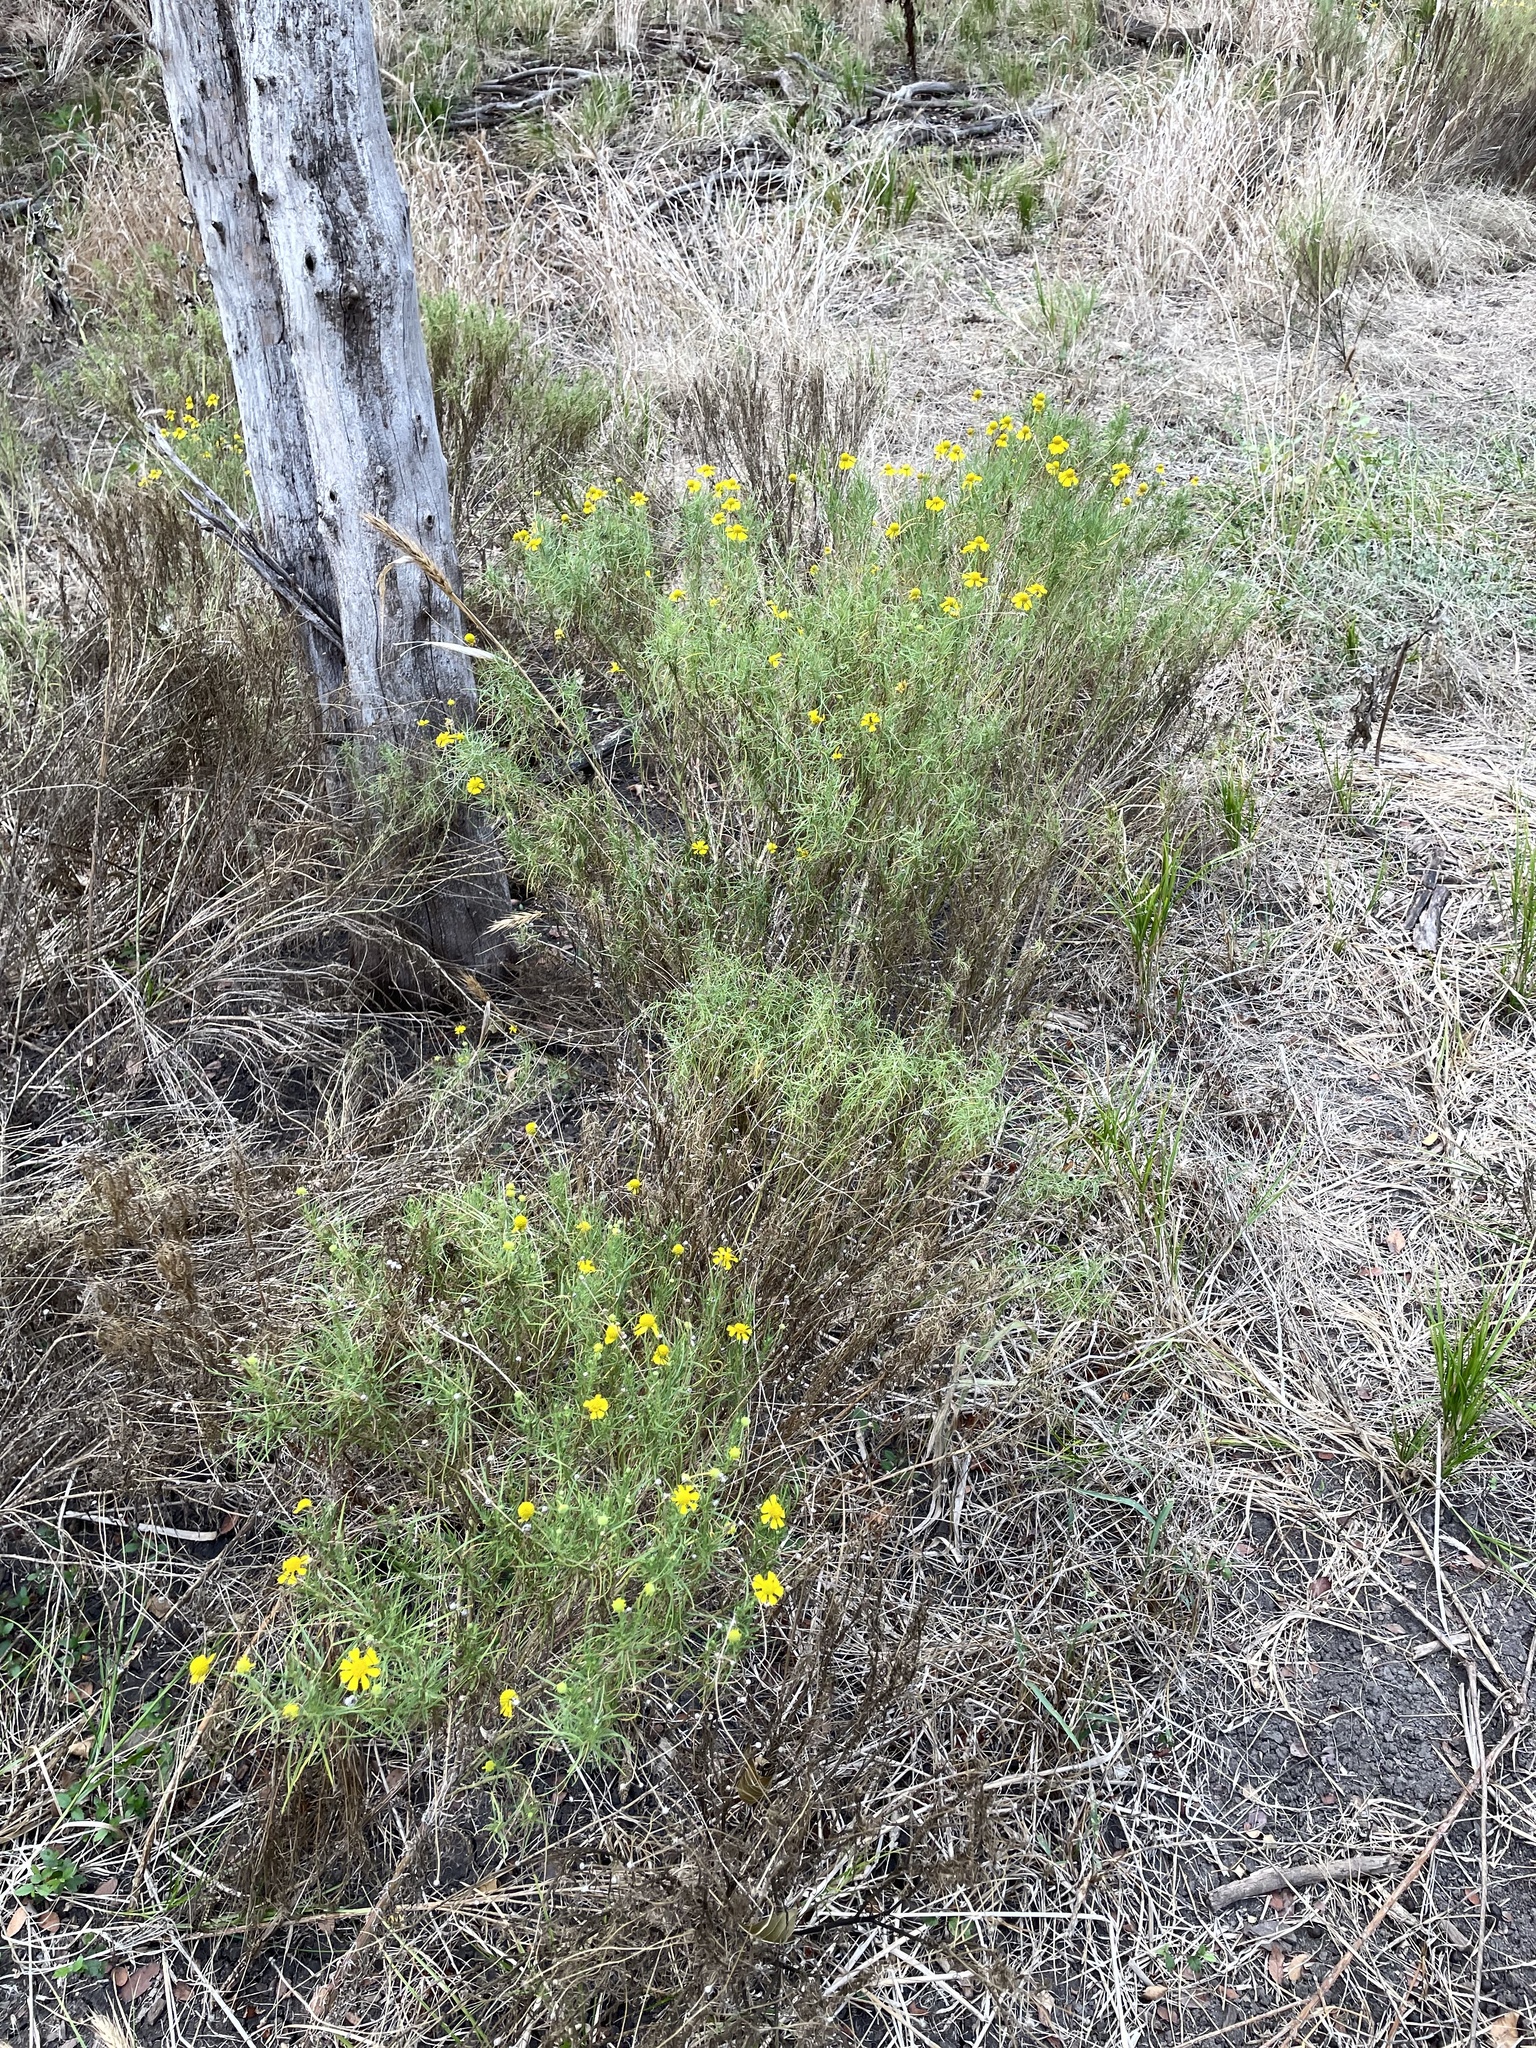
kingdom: Plantae
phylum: Tracheophyta
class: Magnoliopsida
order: Asterales
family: Asteraceae
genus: Helenium
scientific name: Helenium amarum
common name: Bitter sneezeweed
